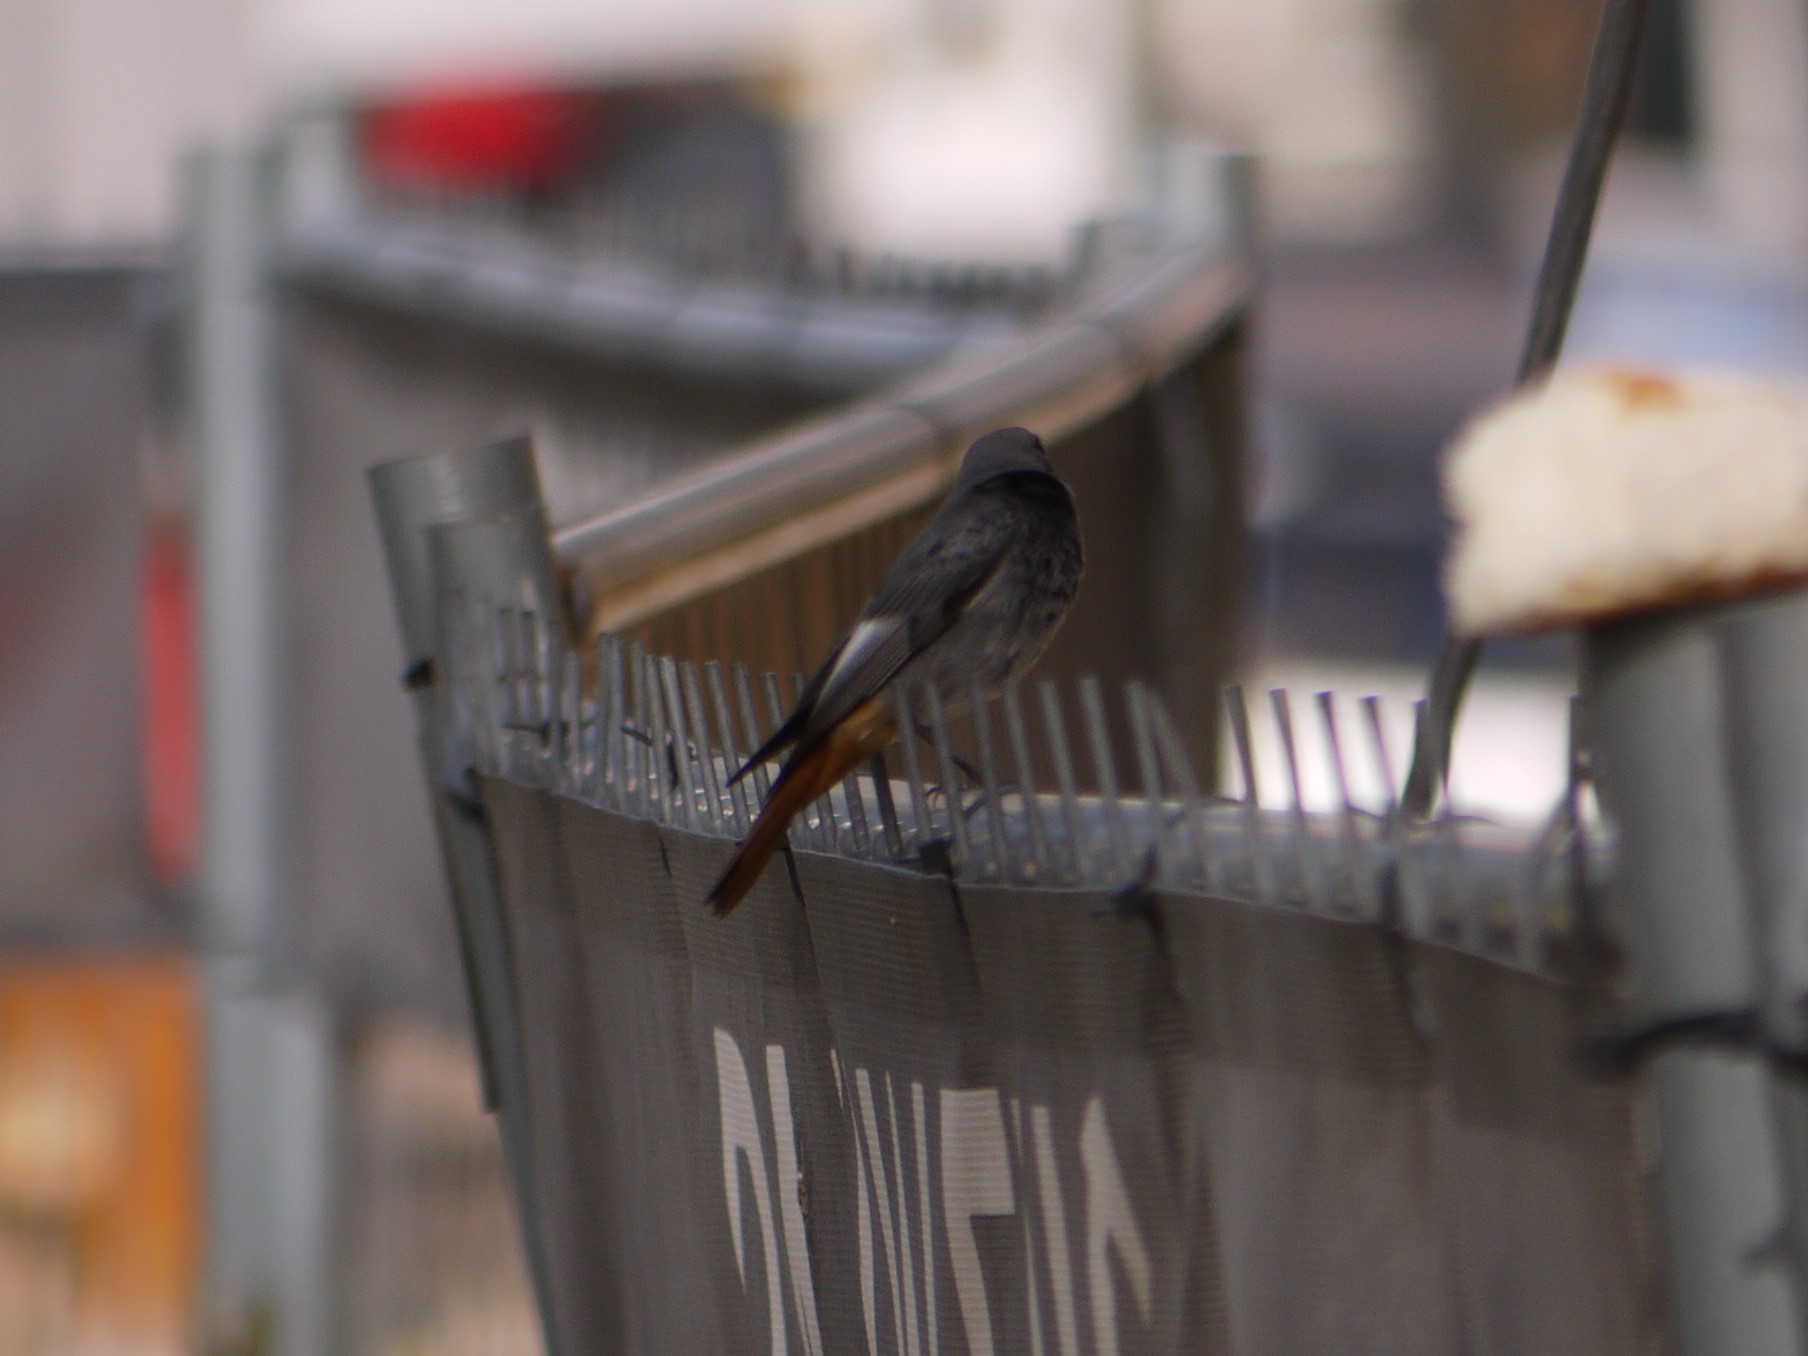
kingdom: Animalia
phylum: Chordata
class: Aves
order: Passeriformes
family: Muscicapidae
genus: Phoenicurus
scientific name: Phoenicurus ochruros
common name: Black redstart
